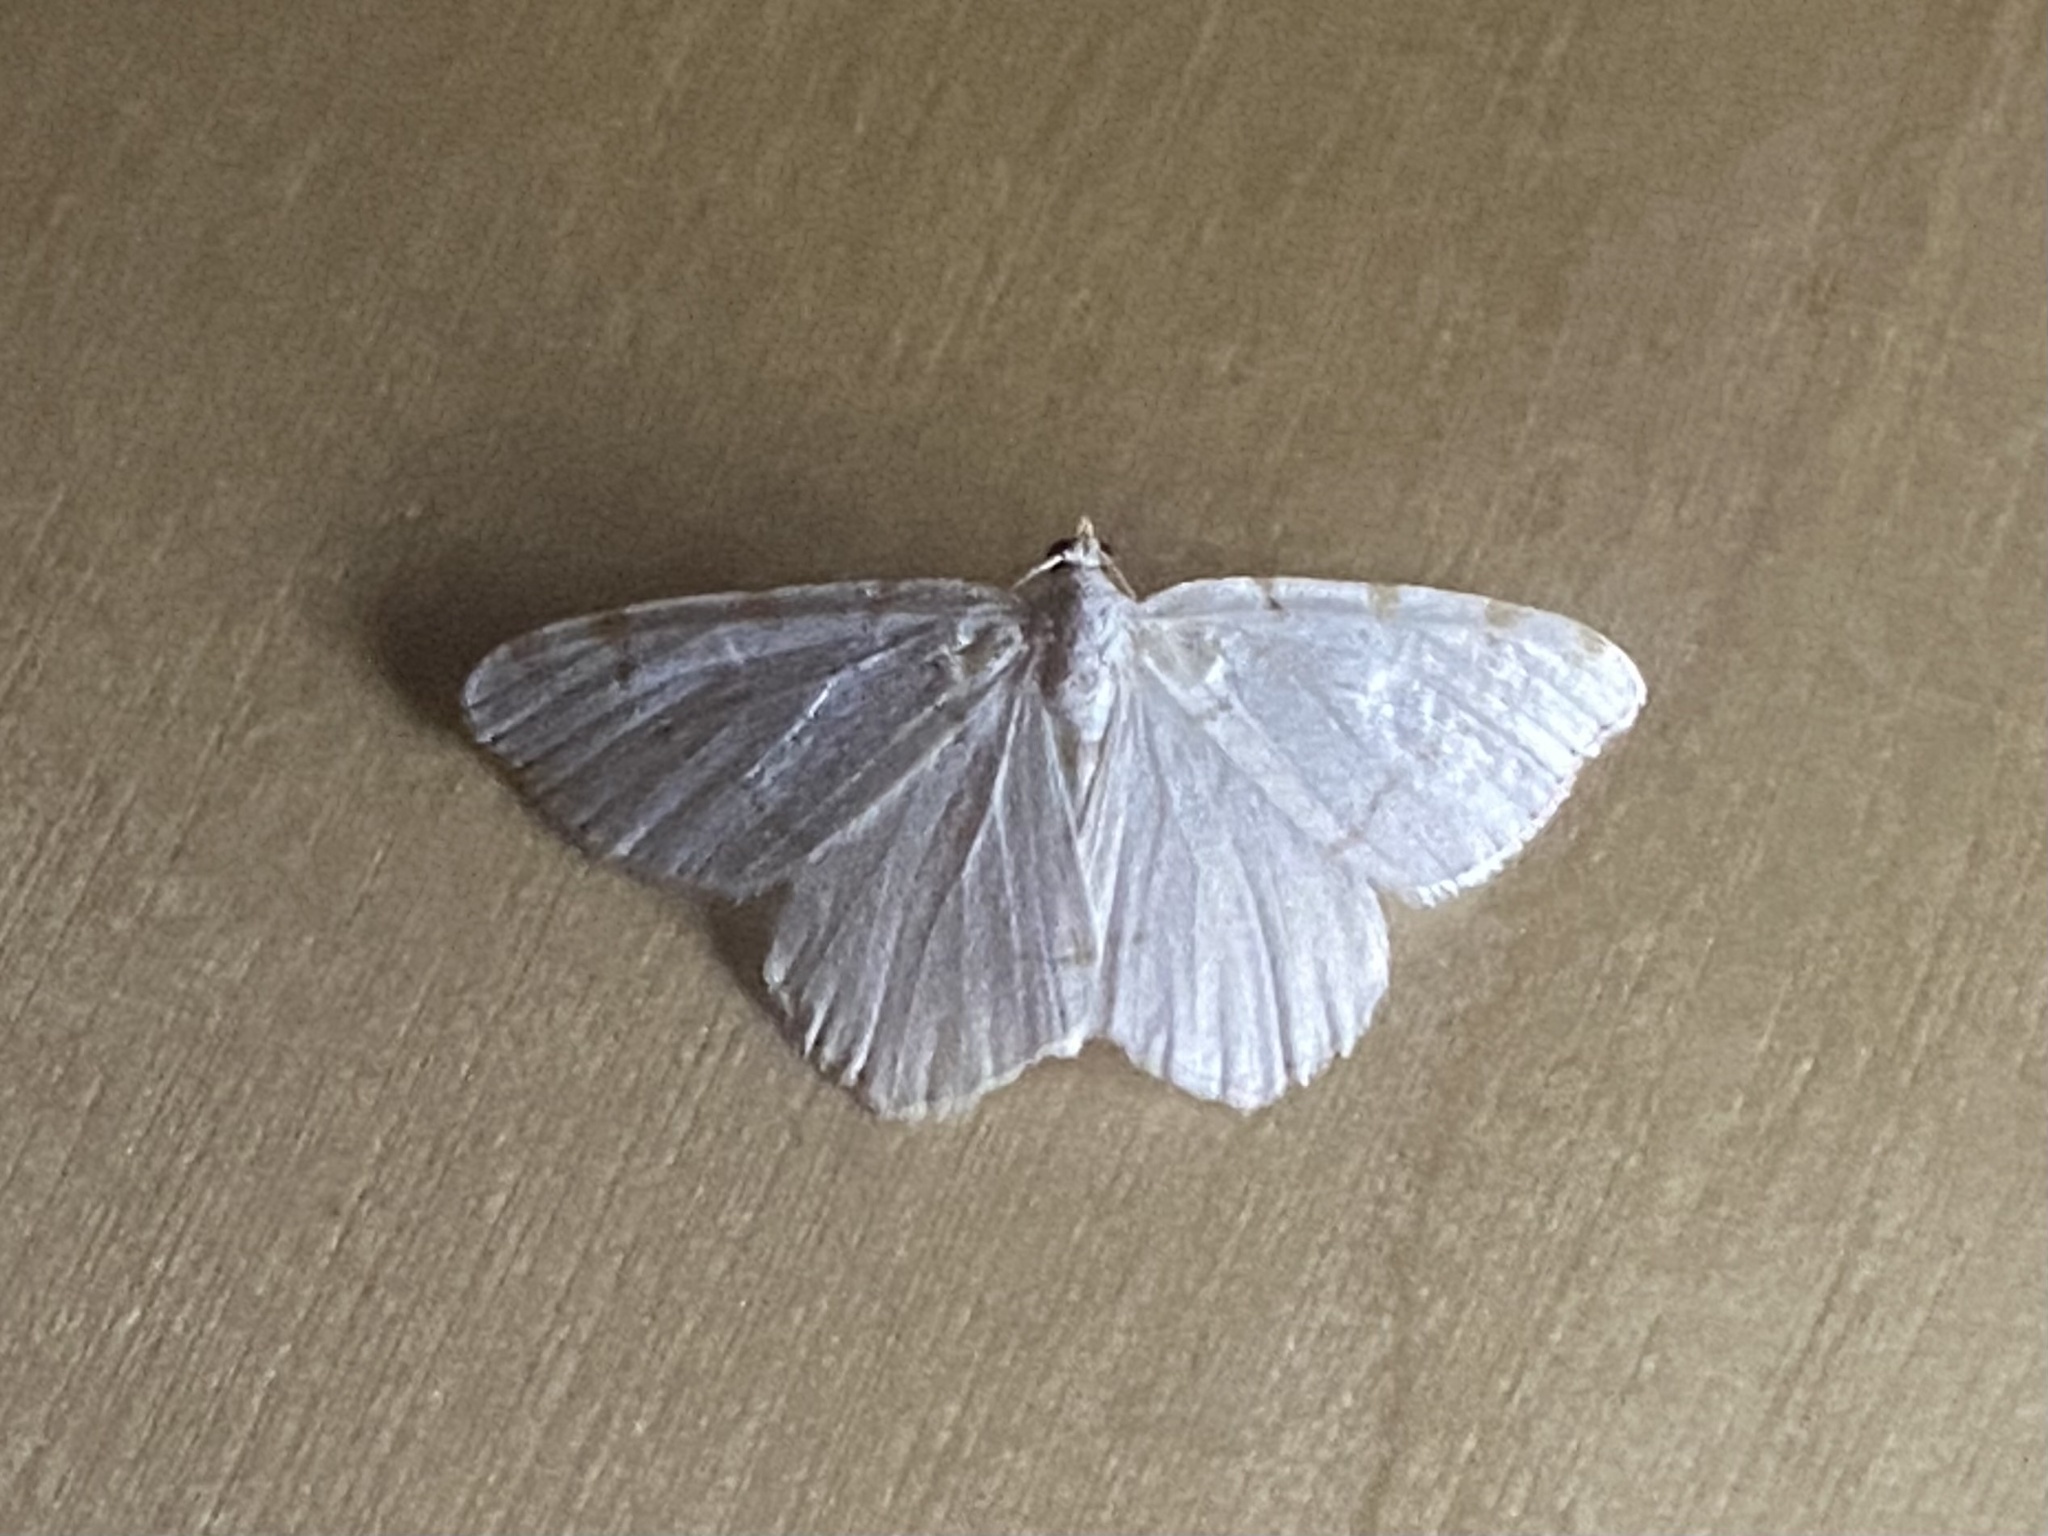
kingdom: Animalia
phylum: Arthropoda
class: Insecta
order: Lepidoptera
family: Geometridae
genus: Macaria
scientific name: Macaria pustularia
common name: Lesser maple spanworm moth
